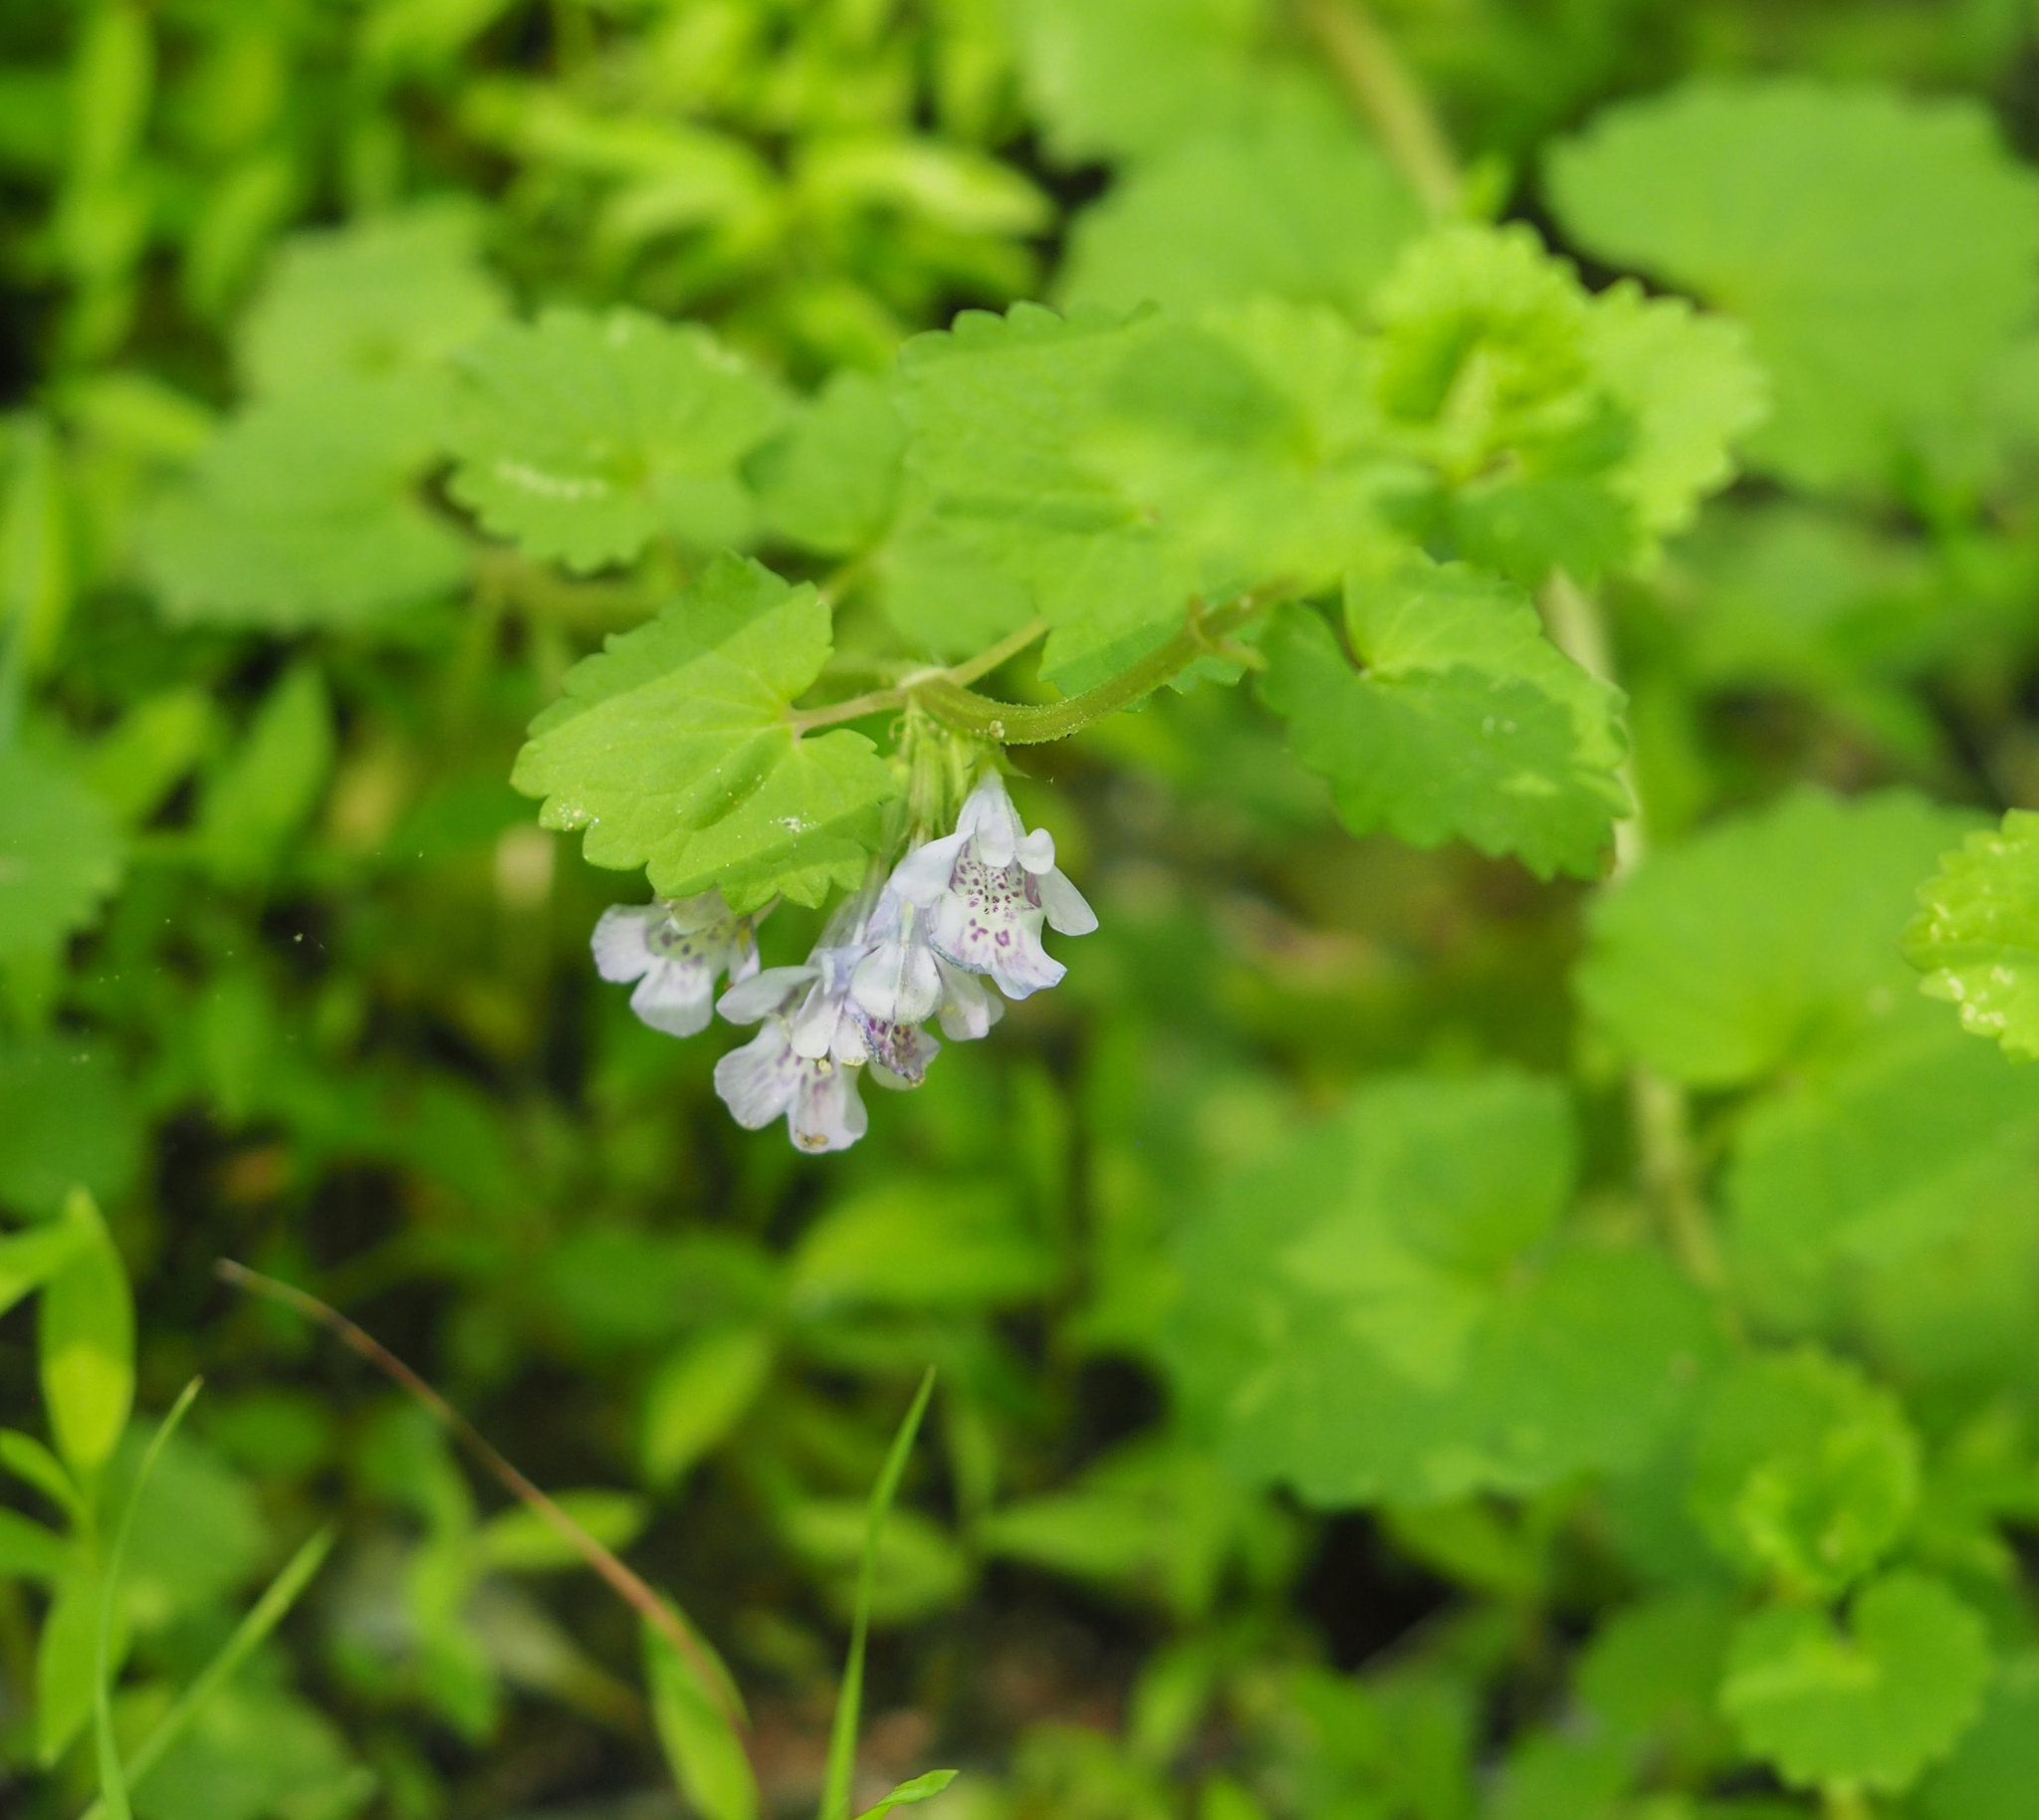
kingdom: Plantae
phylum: Tracheophyta
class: Magnoliopsida
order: Lamiales
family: Lamiaceae
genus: Glechoma
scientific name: Glechoma hederacea
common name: Ground ivy
